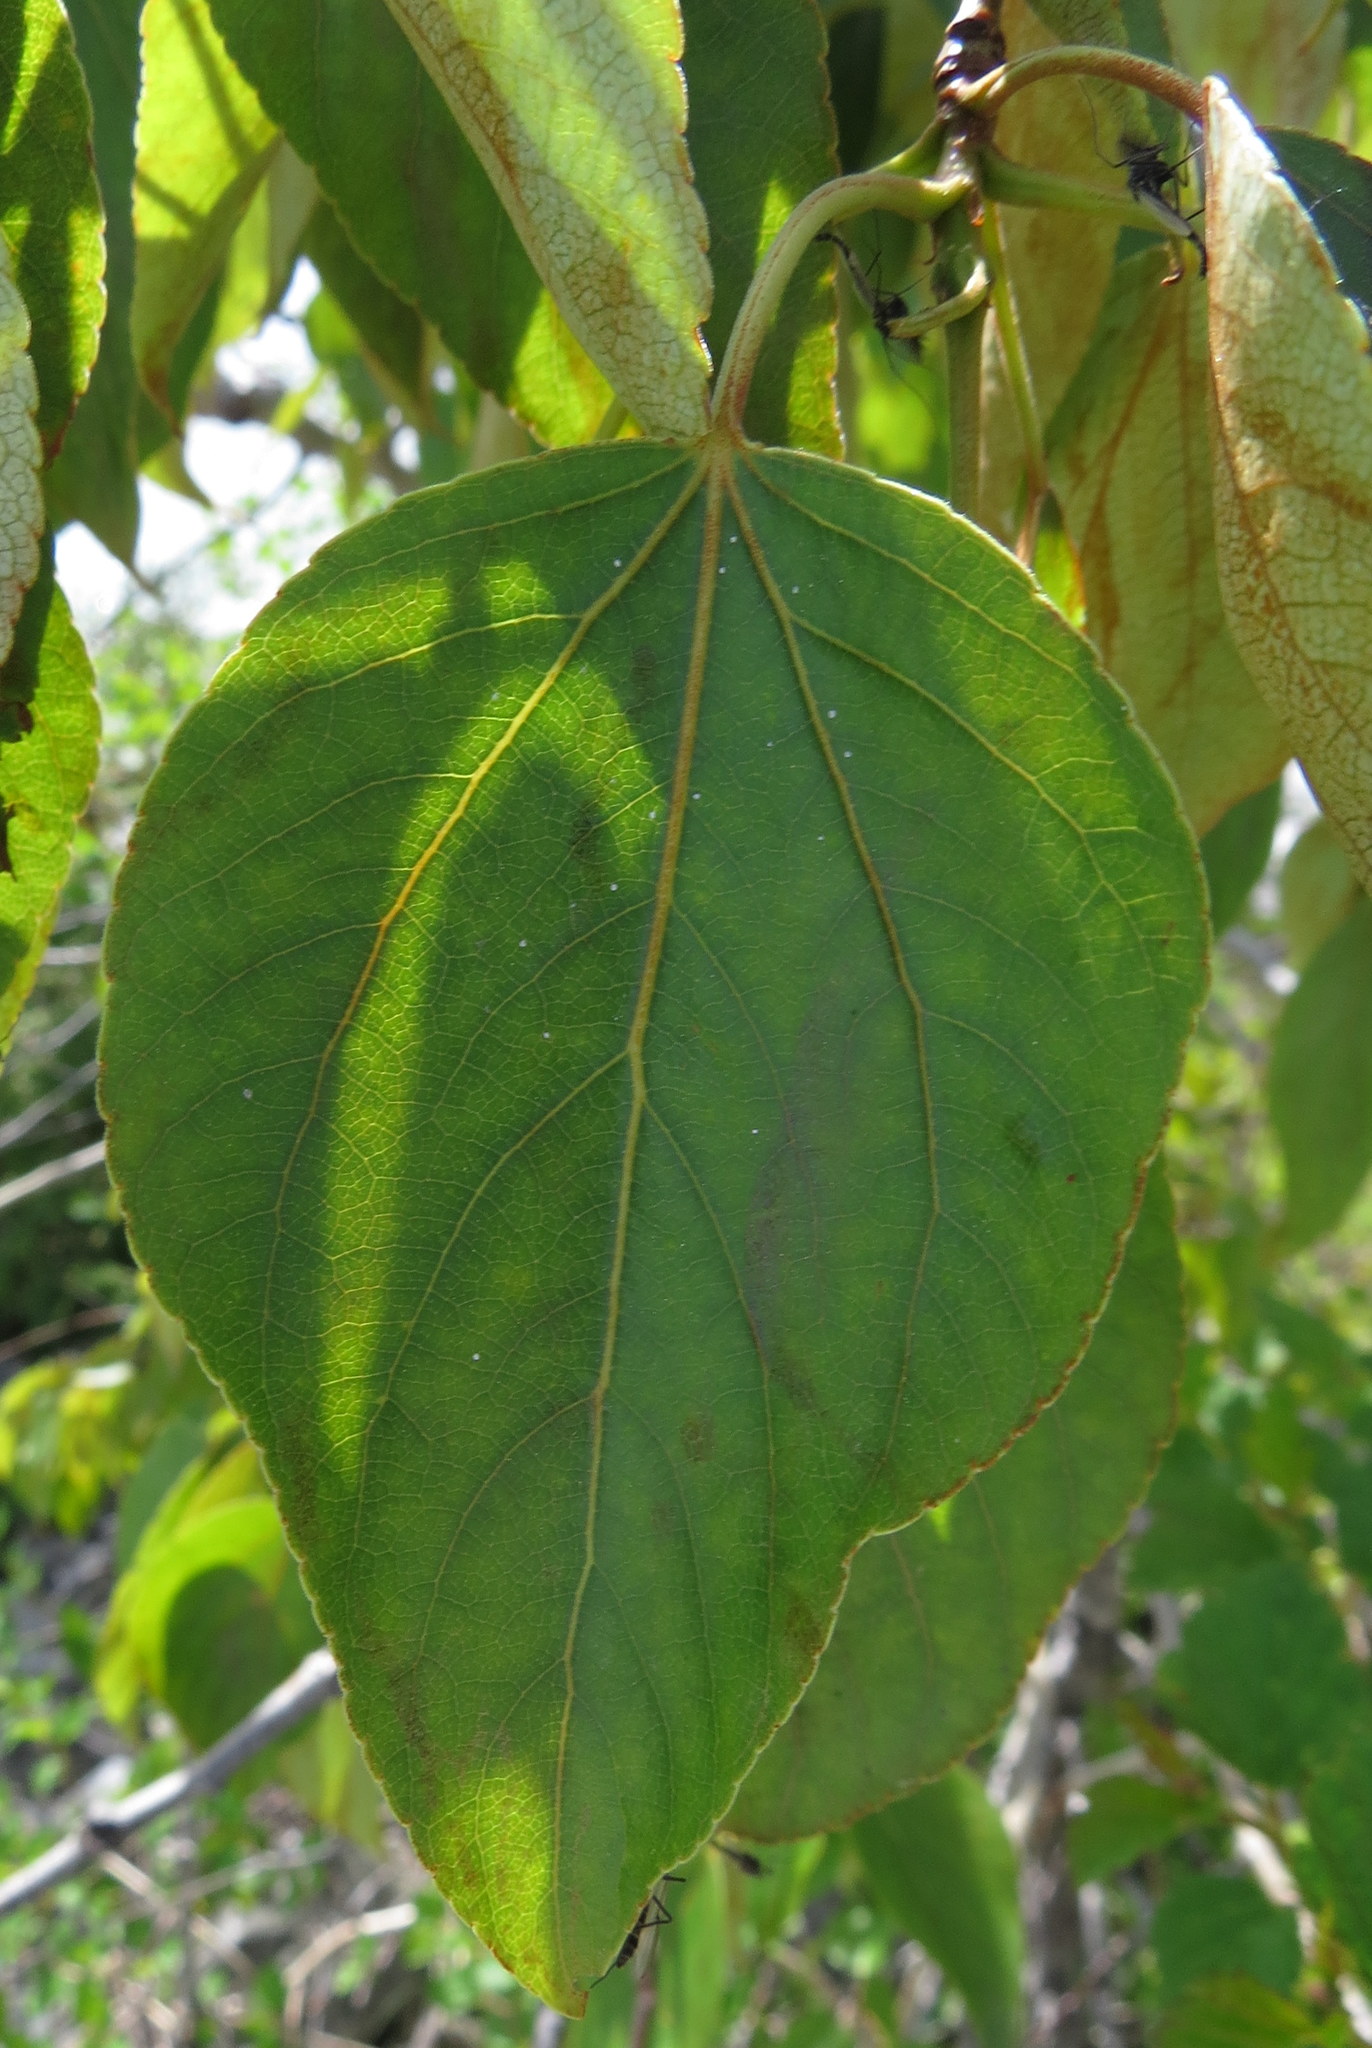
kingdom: Plantae
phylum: Tracheophyta
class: Magnoliopsida
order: Malpighiales
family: Salicaceae
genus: Populus
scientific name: Populus balsamifera
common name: Balsam poplar
